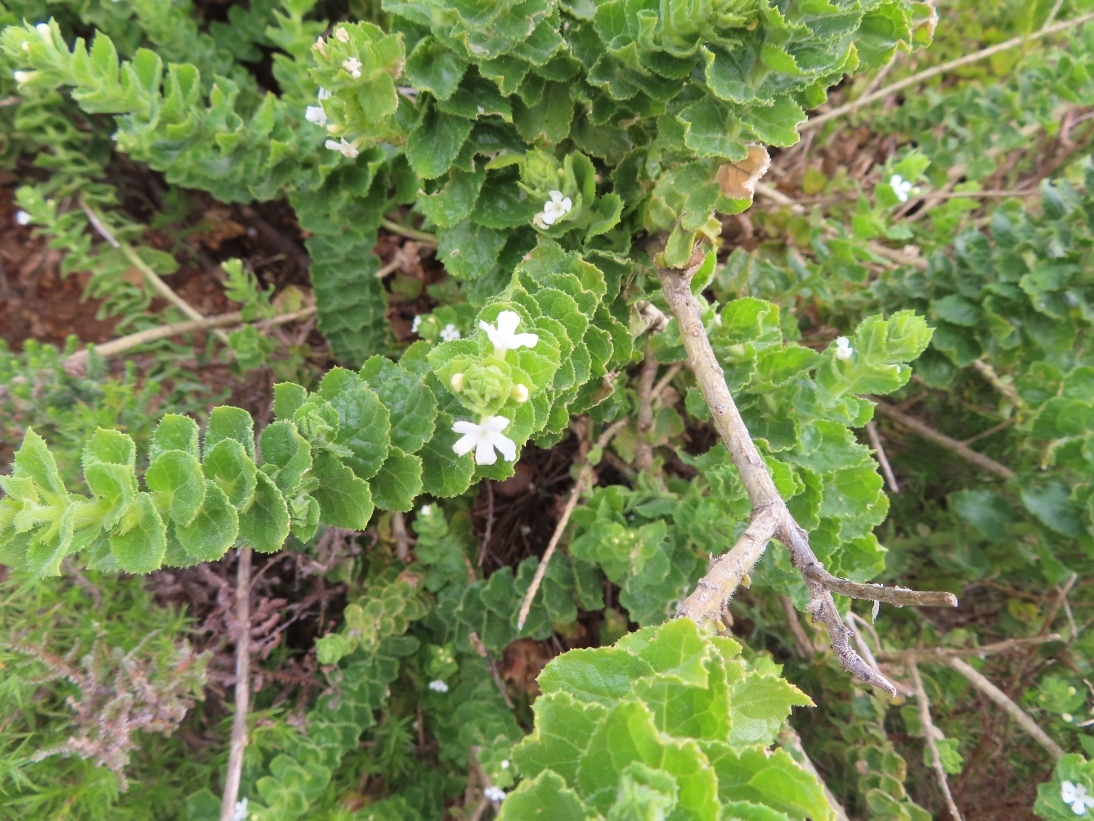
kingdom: Plantae
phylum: Tracheophyta
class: Magnoliopsida
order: Lamiales
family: Scrophulariaceae
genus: Oftia
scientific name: Oftia africana
